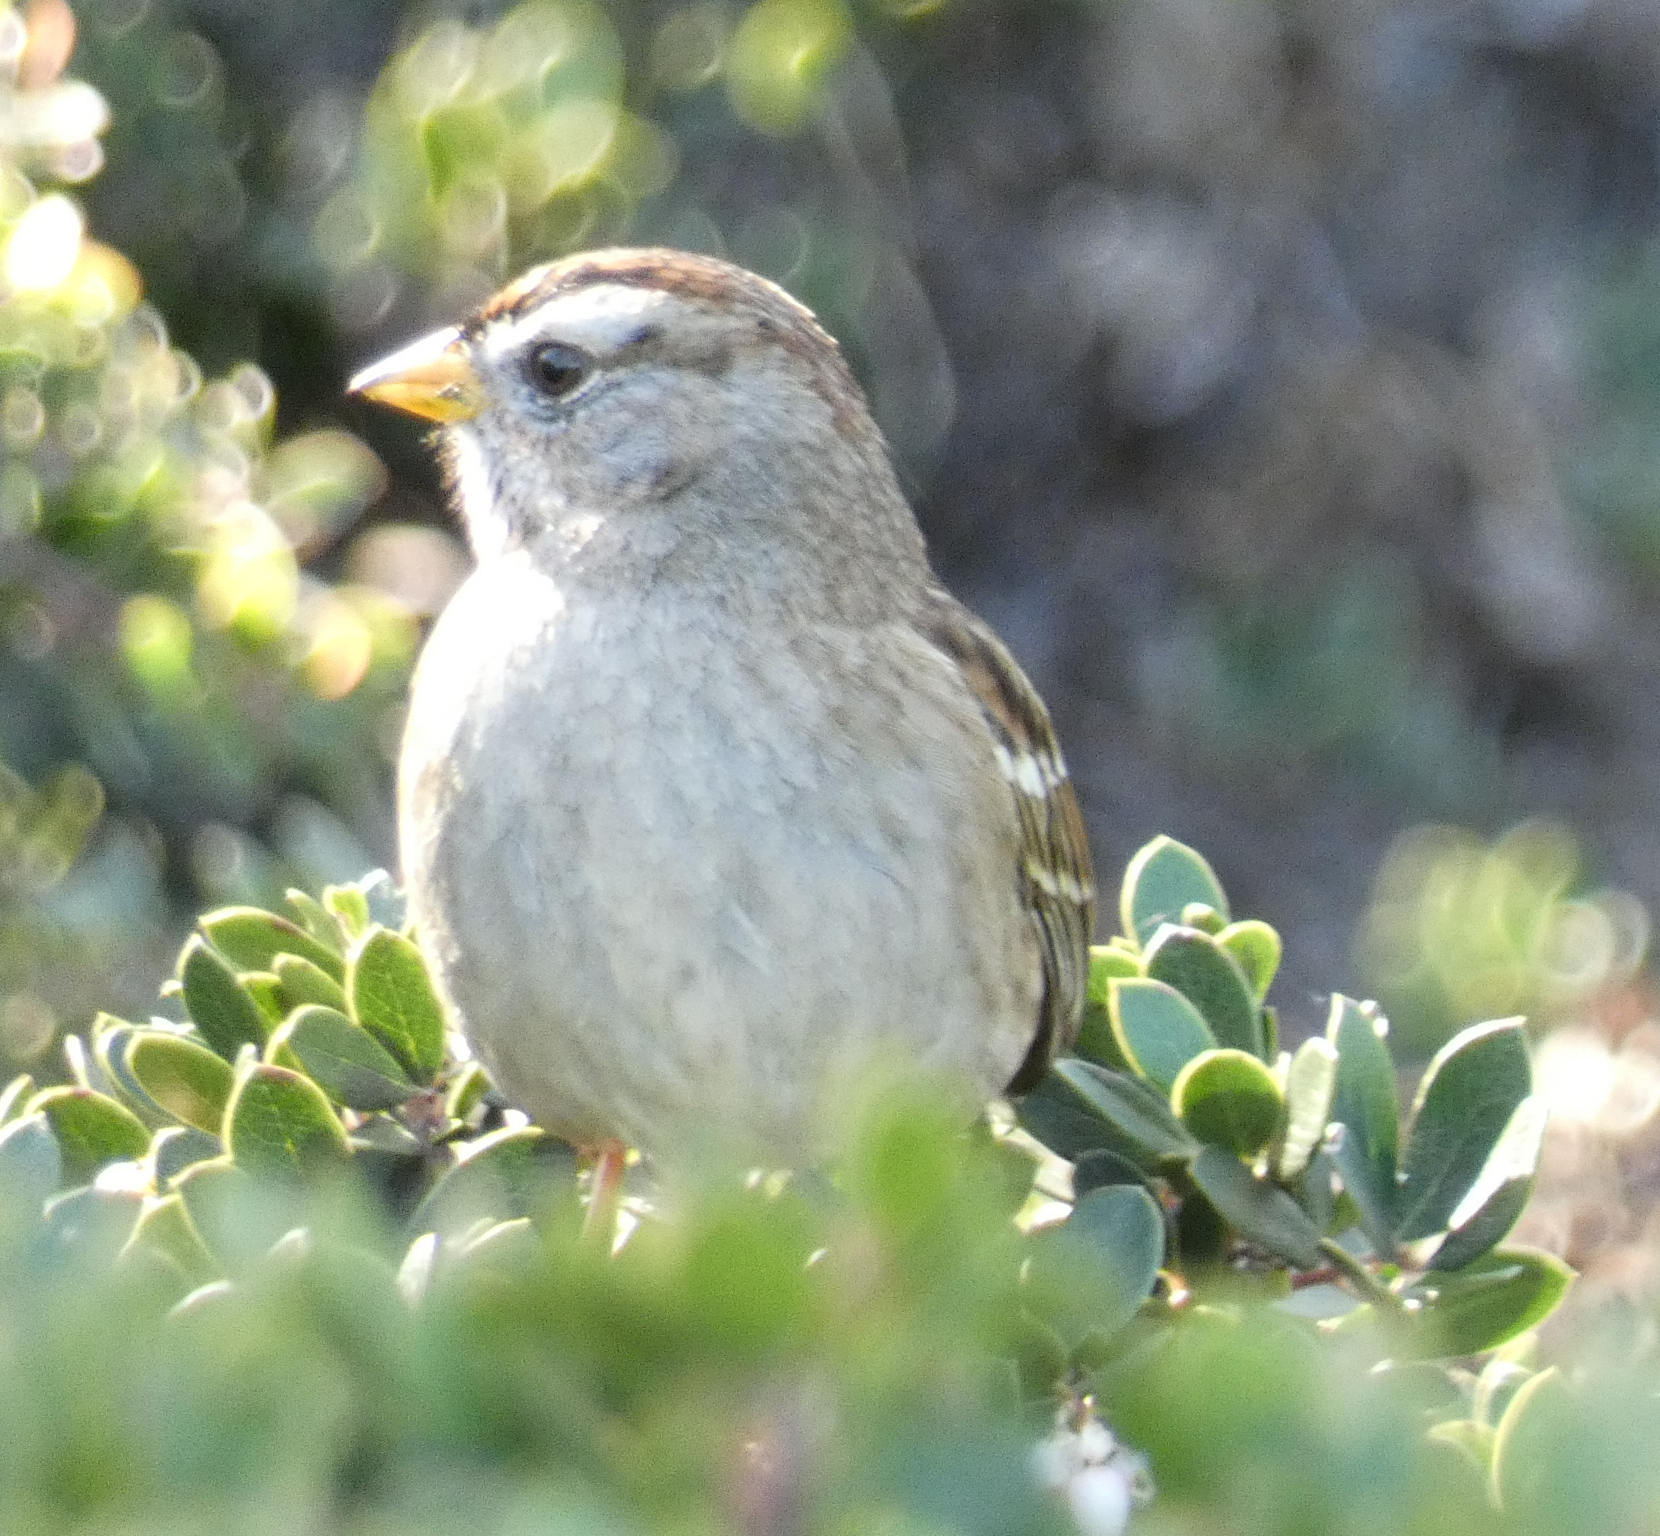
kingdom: Animalia
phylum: Chordata
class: Aves
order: Passeriformes
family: Passerellidae
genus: Zonotrichia
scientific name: Zonotrichia leucophrys
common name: White-crowned sparrow
